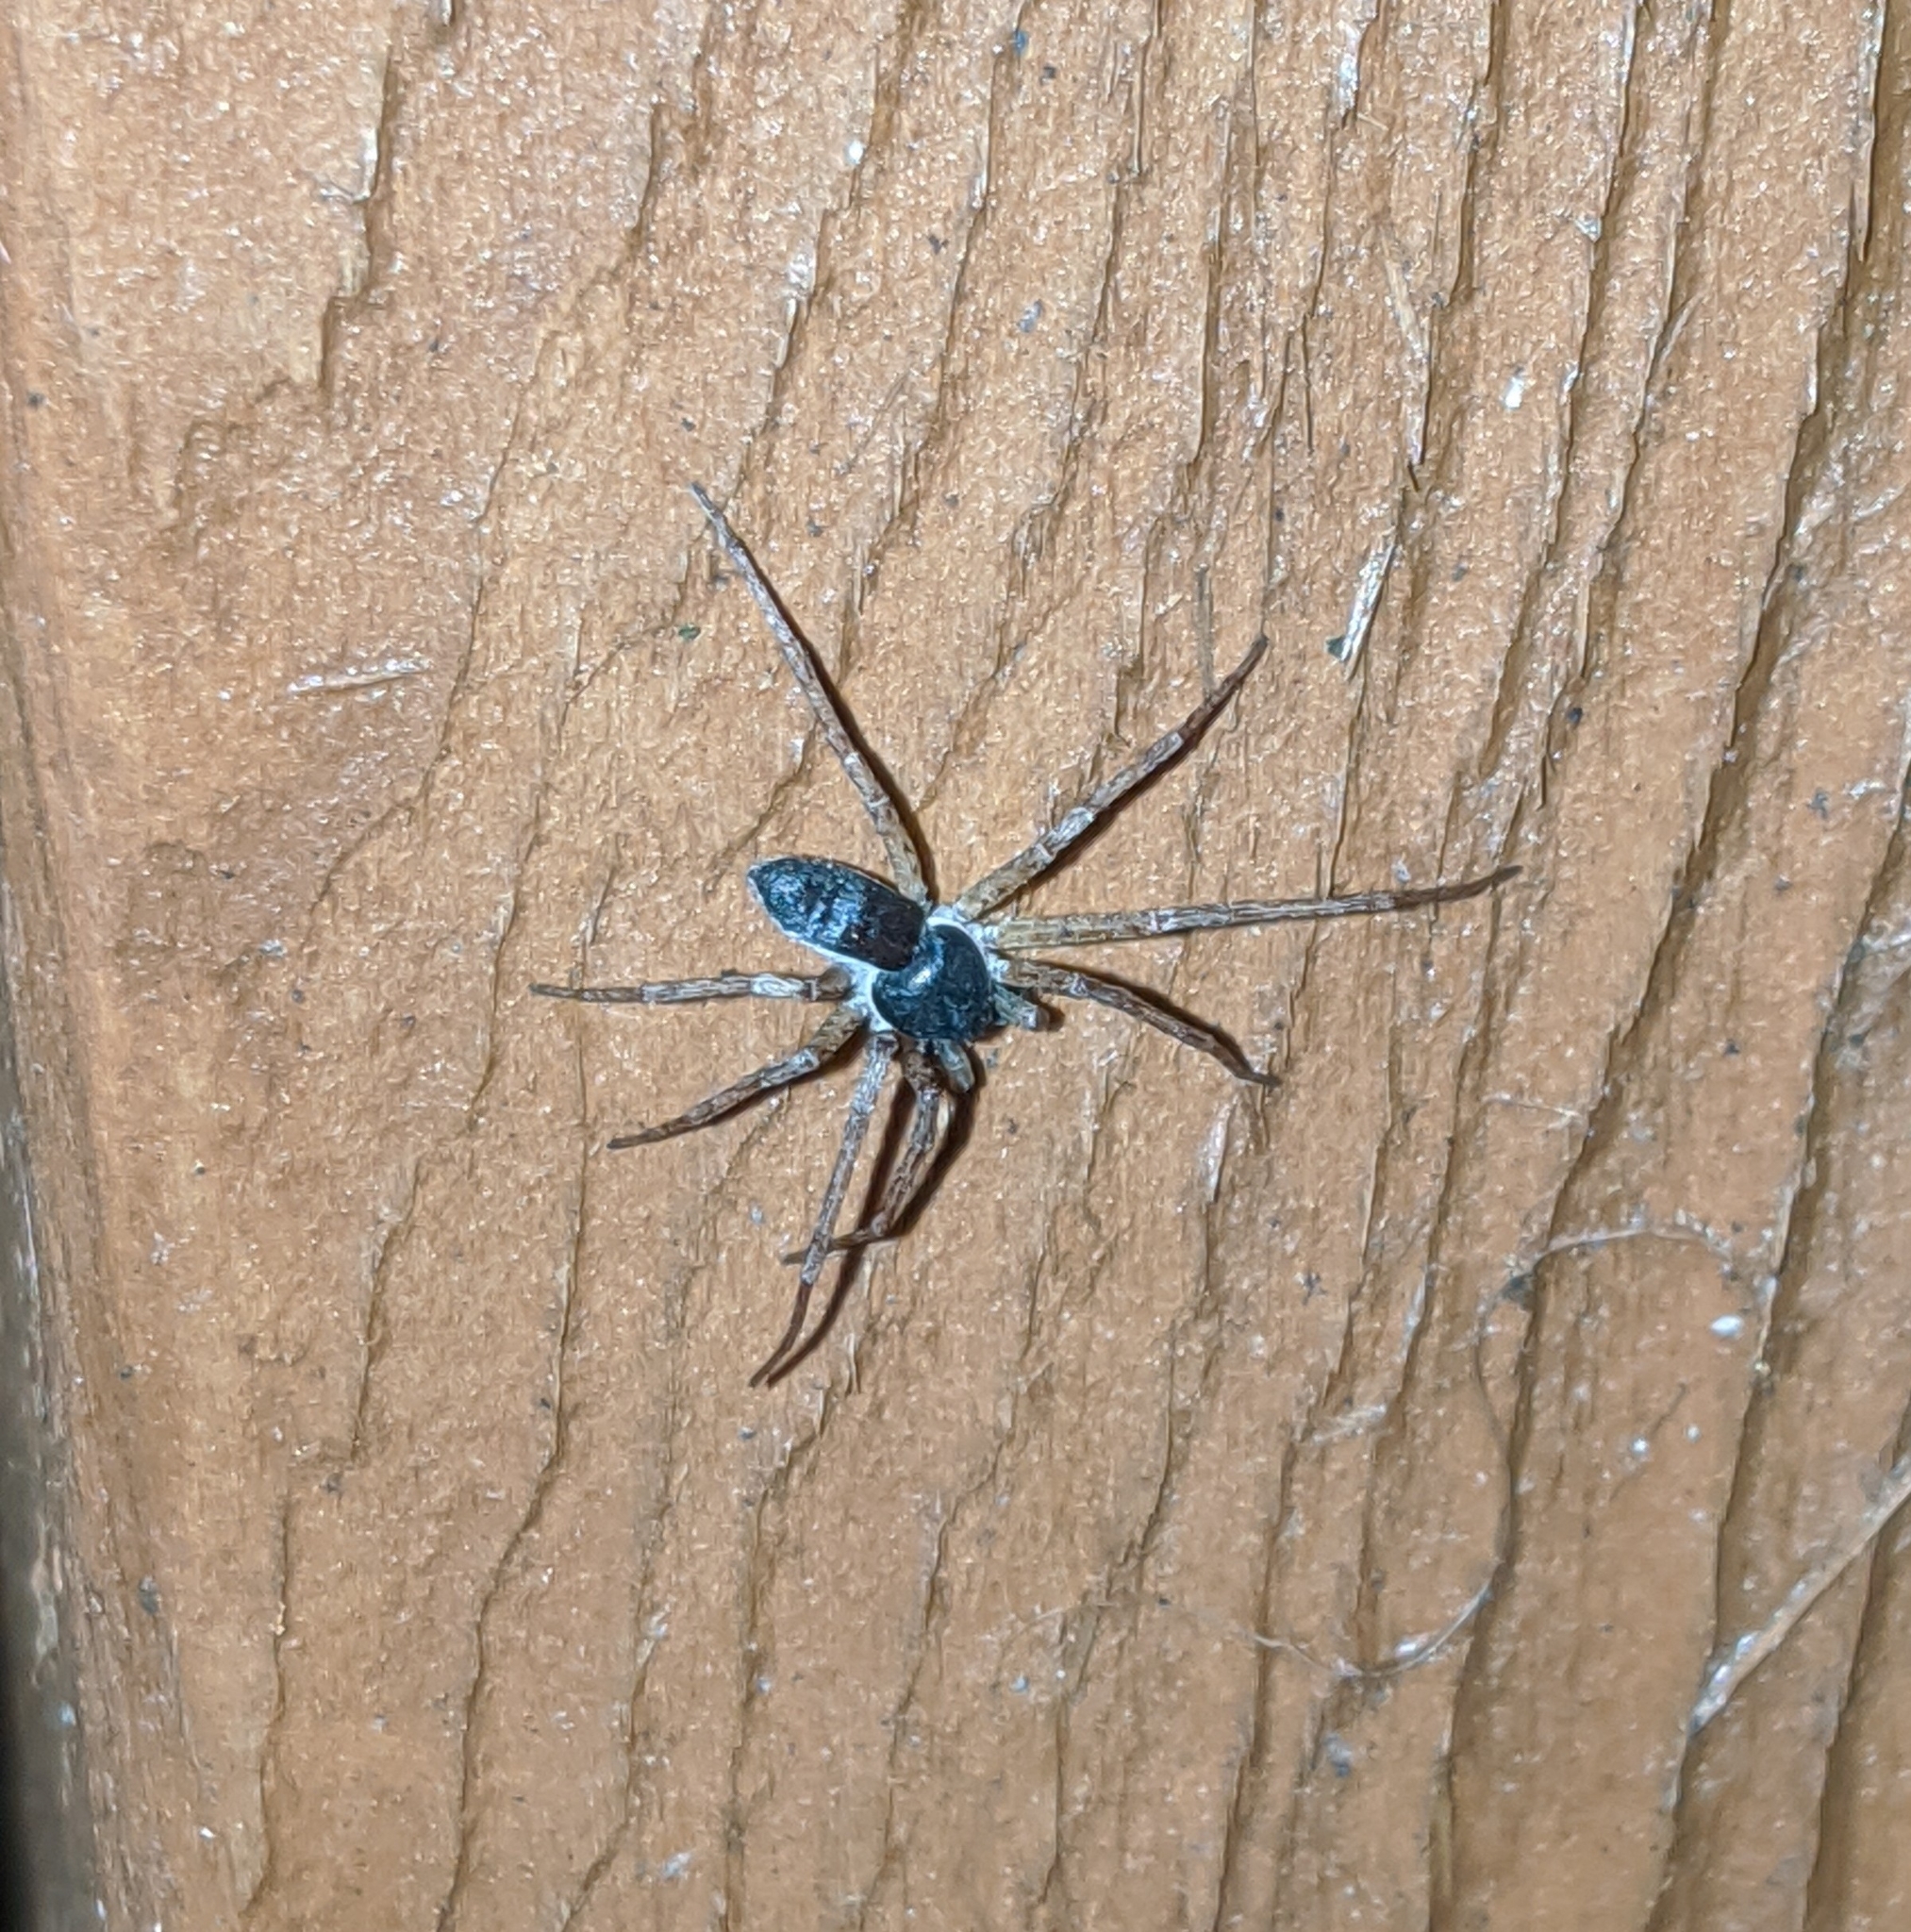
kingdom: Animalia
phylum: Arthropoda
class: Arachnida
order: Araneae
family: Philodromidae
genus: Philodromus
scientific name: Philodromus dispar
